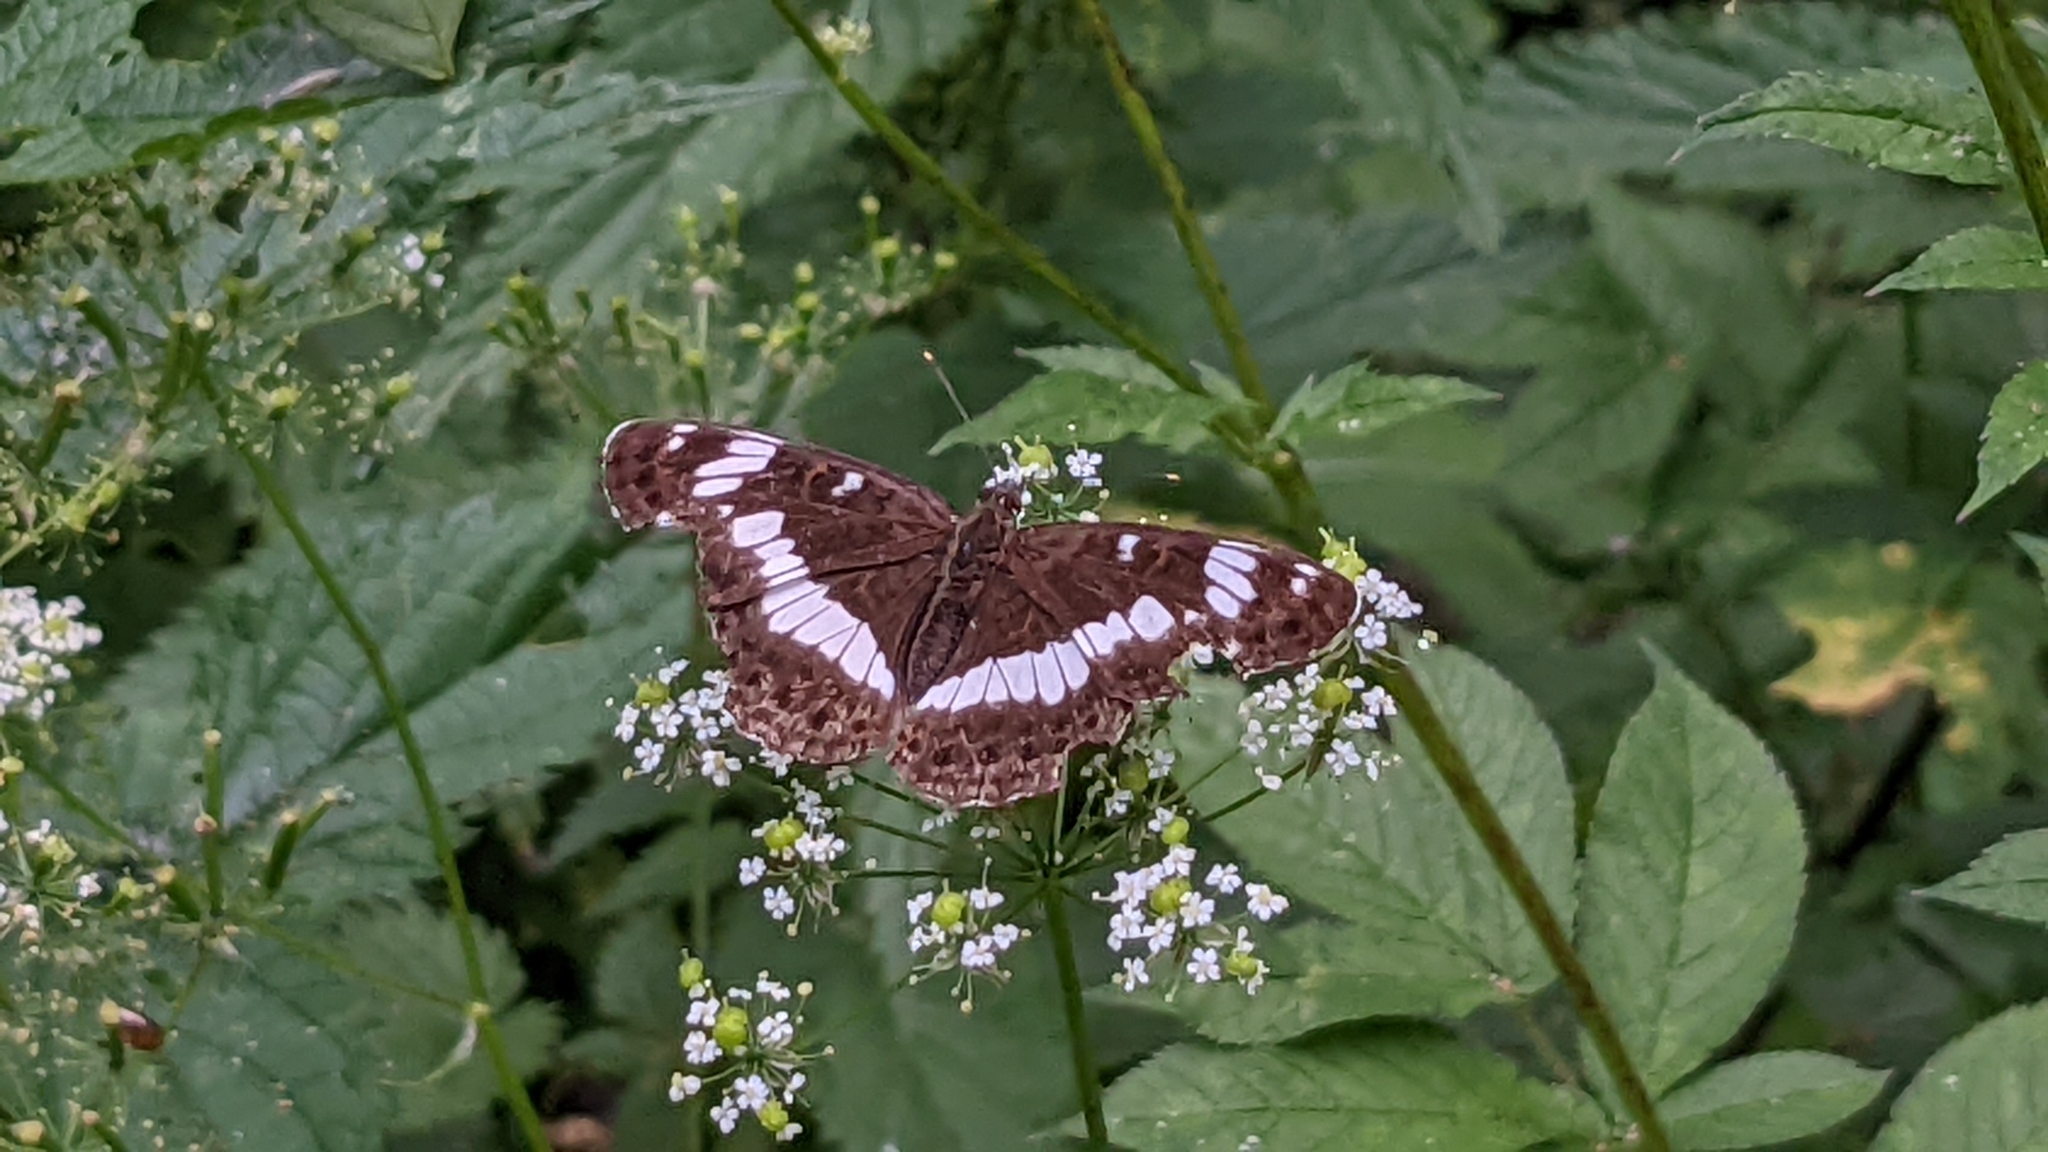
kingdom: Animalia
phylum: Arthropoda
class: Insecta
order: Lepidoptera
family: Nymphalidae
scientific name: Nymphalidae
